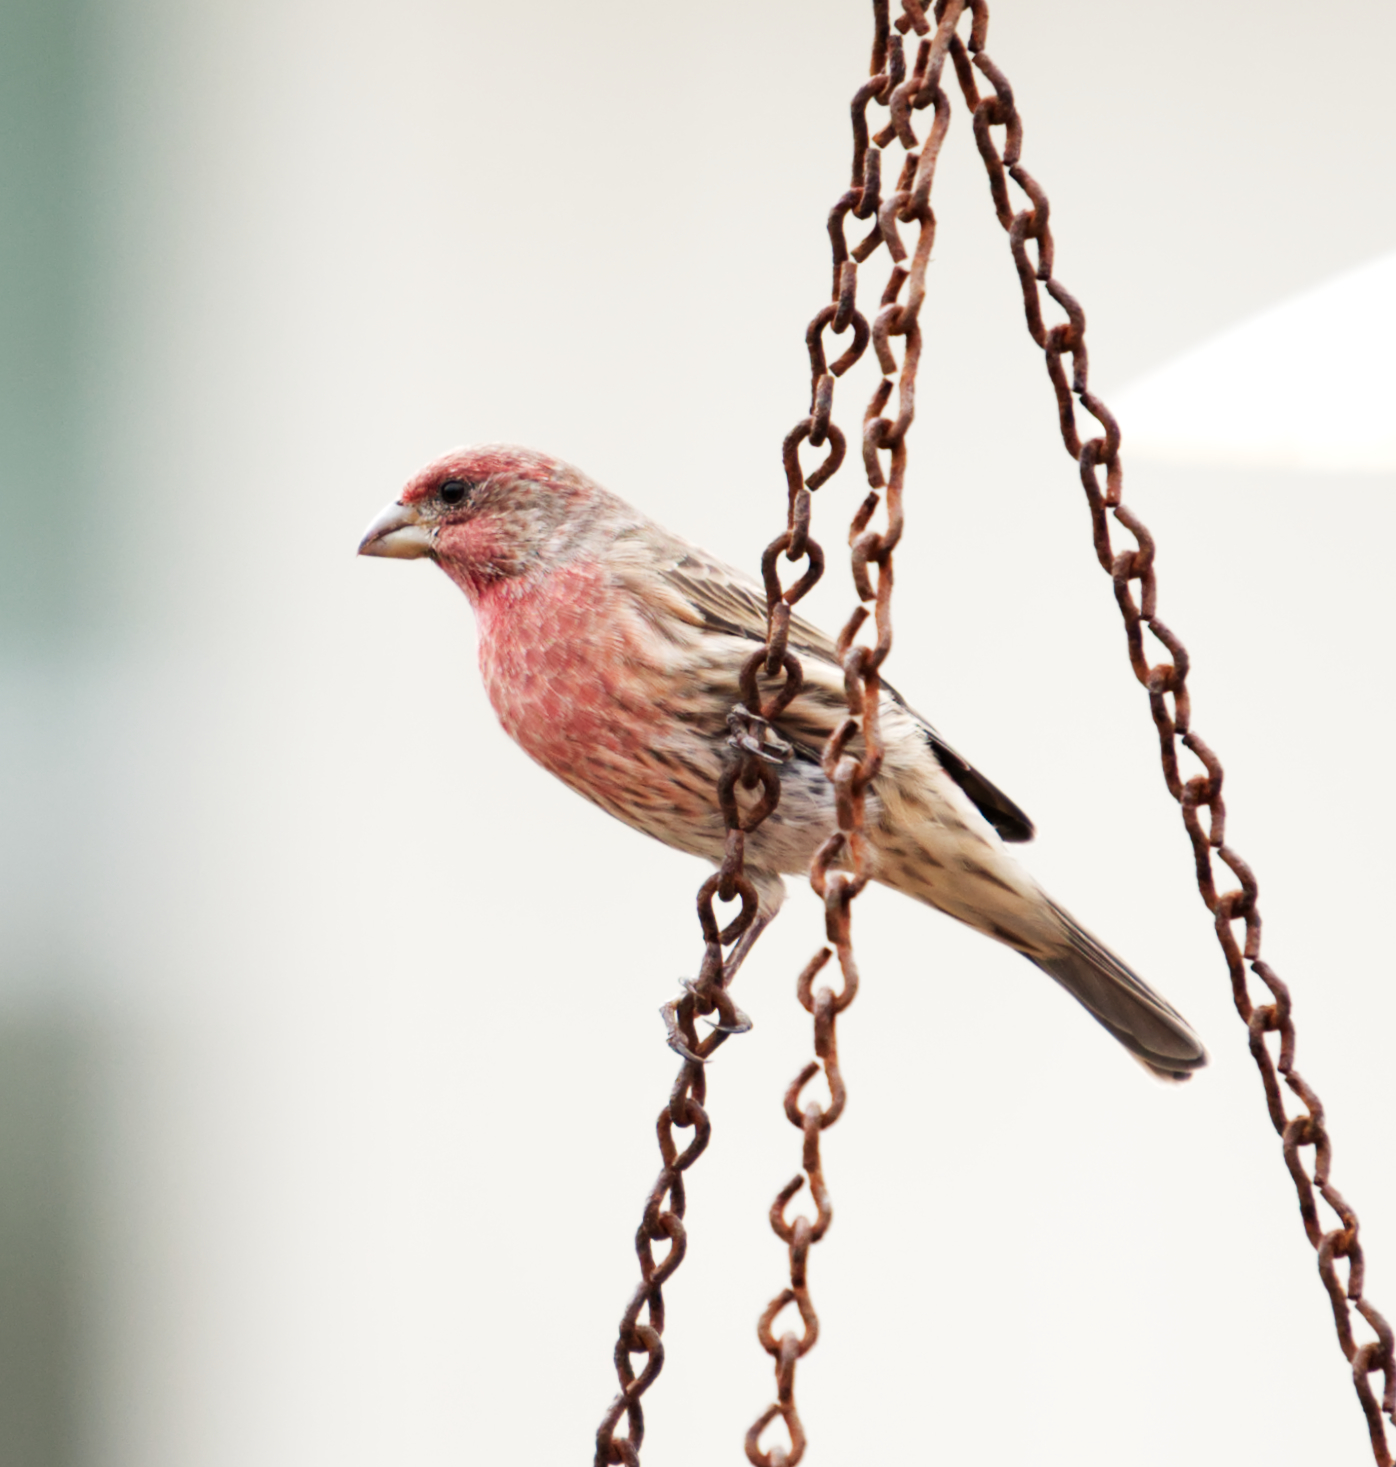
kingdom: Animalia
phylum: Chordata
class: Aves
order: Passeriformes
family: Fringillidae
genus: Haemorhous
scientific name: Haemorhous mexicanus
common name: House finch
